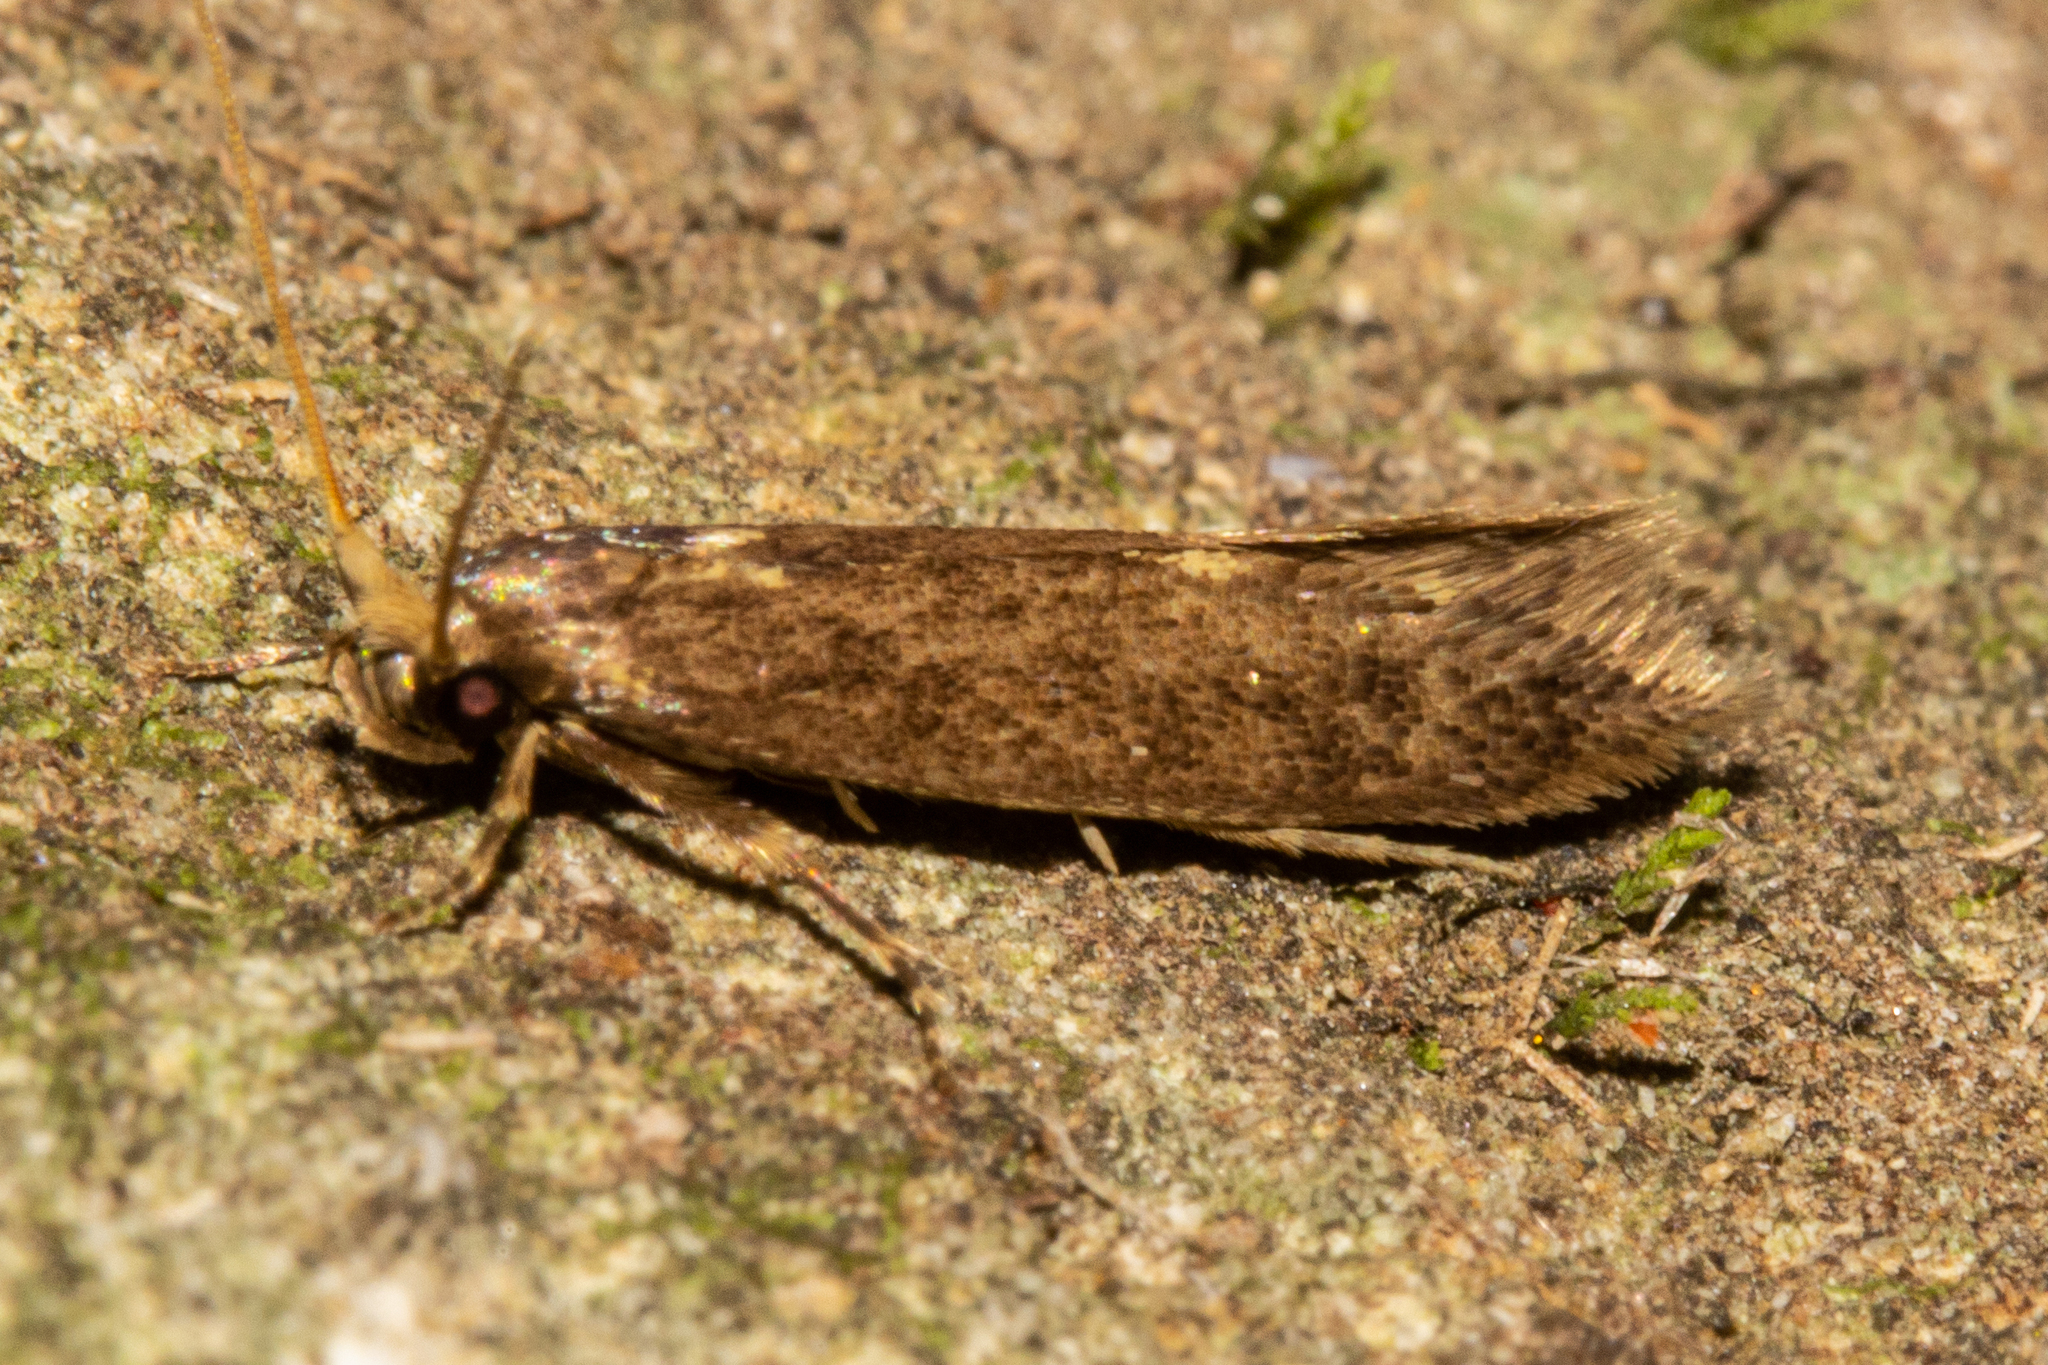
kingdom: Animalia
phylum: Arthropoda
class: Insecta
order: Lepidoptera
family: Tineidae
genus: Opogona
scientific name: Opogona omoscopa
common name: Moth
